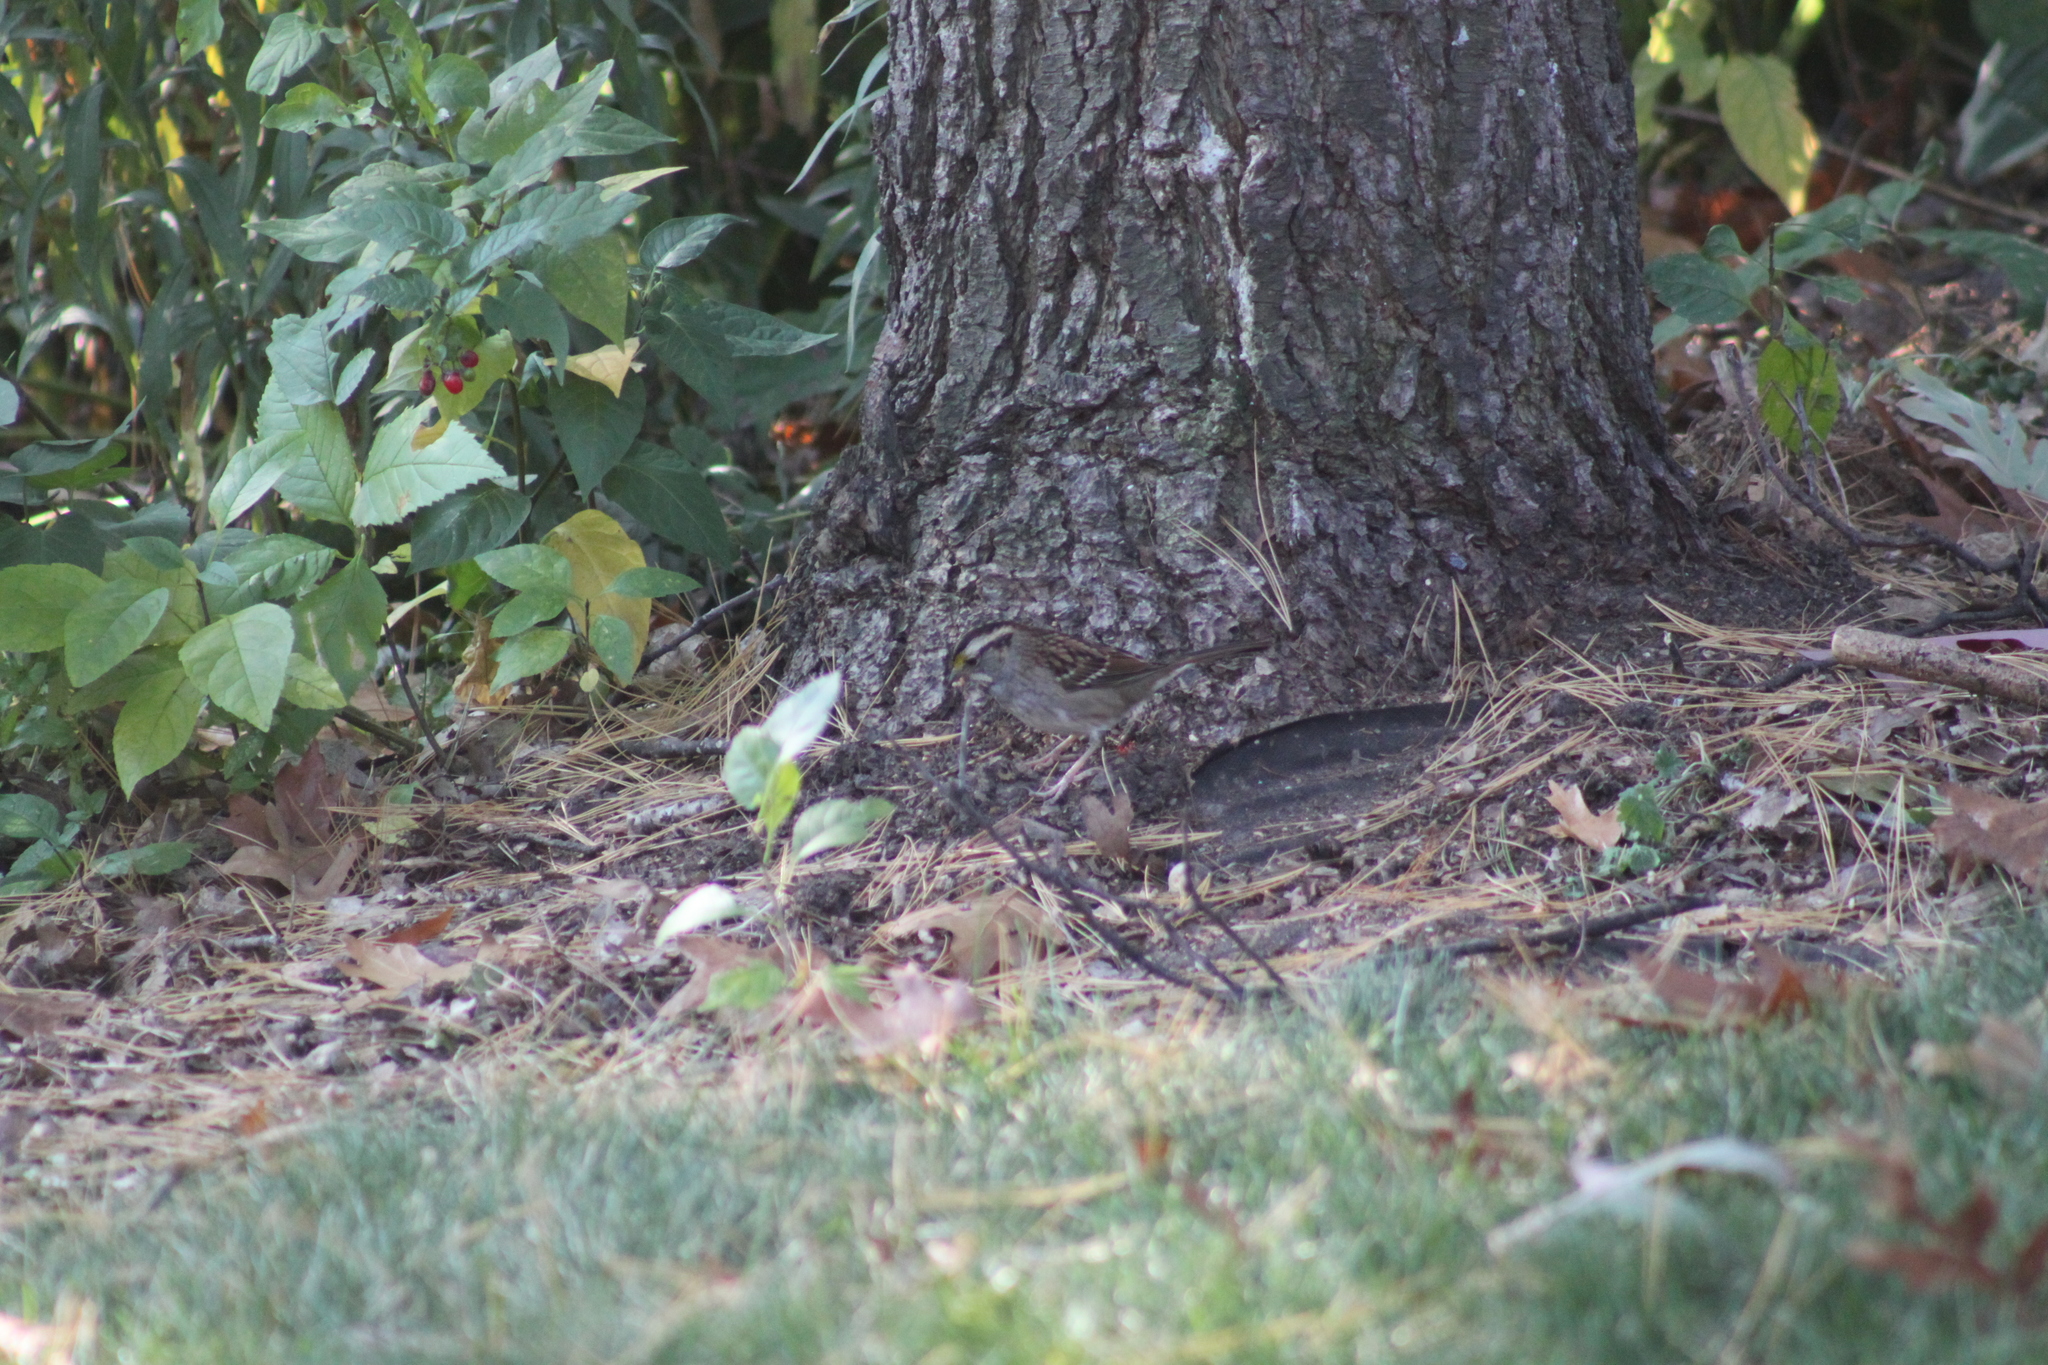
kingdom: Animalia
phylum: Chordata
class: Aves
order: Passeriformes
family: Passerellidae
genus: Zonotrichia
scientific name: Zonotrichia albicollis
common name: White-throated sparrow
